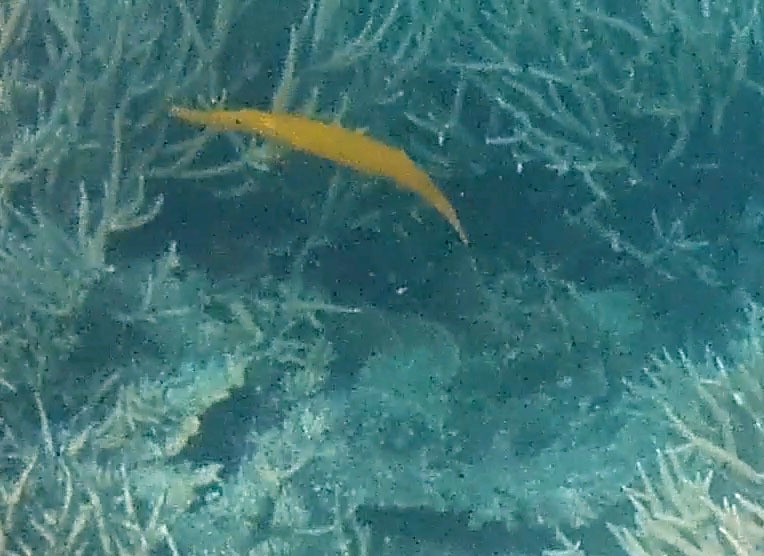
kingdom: Animalia
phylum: Chordata
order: Syngnathiformes
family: Aulostomidae
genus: Aulostomus
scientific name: Aulostomus chinensis
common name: Chinese trumpetfish
